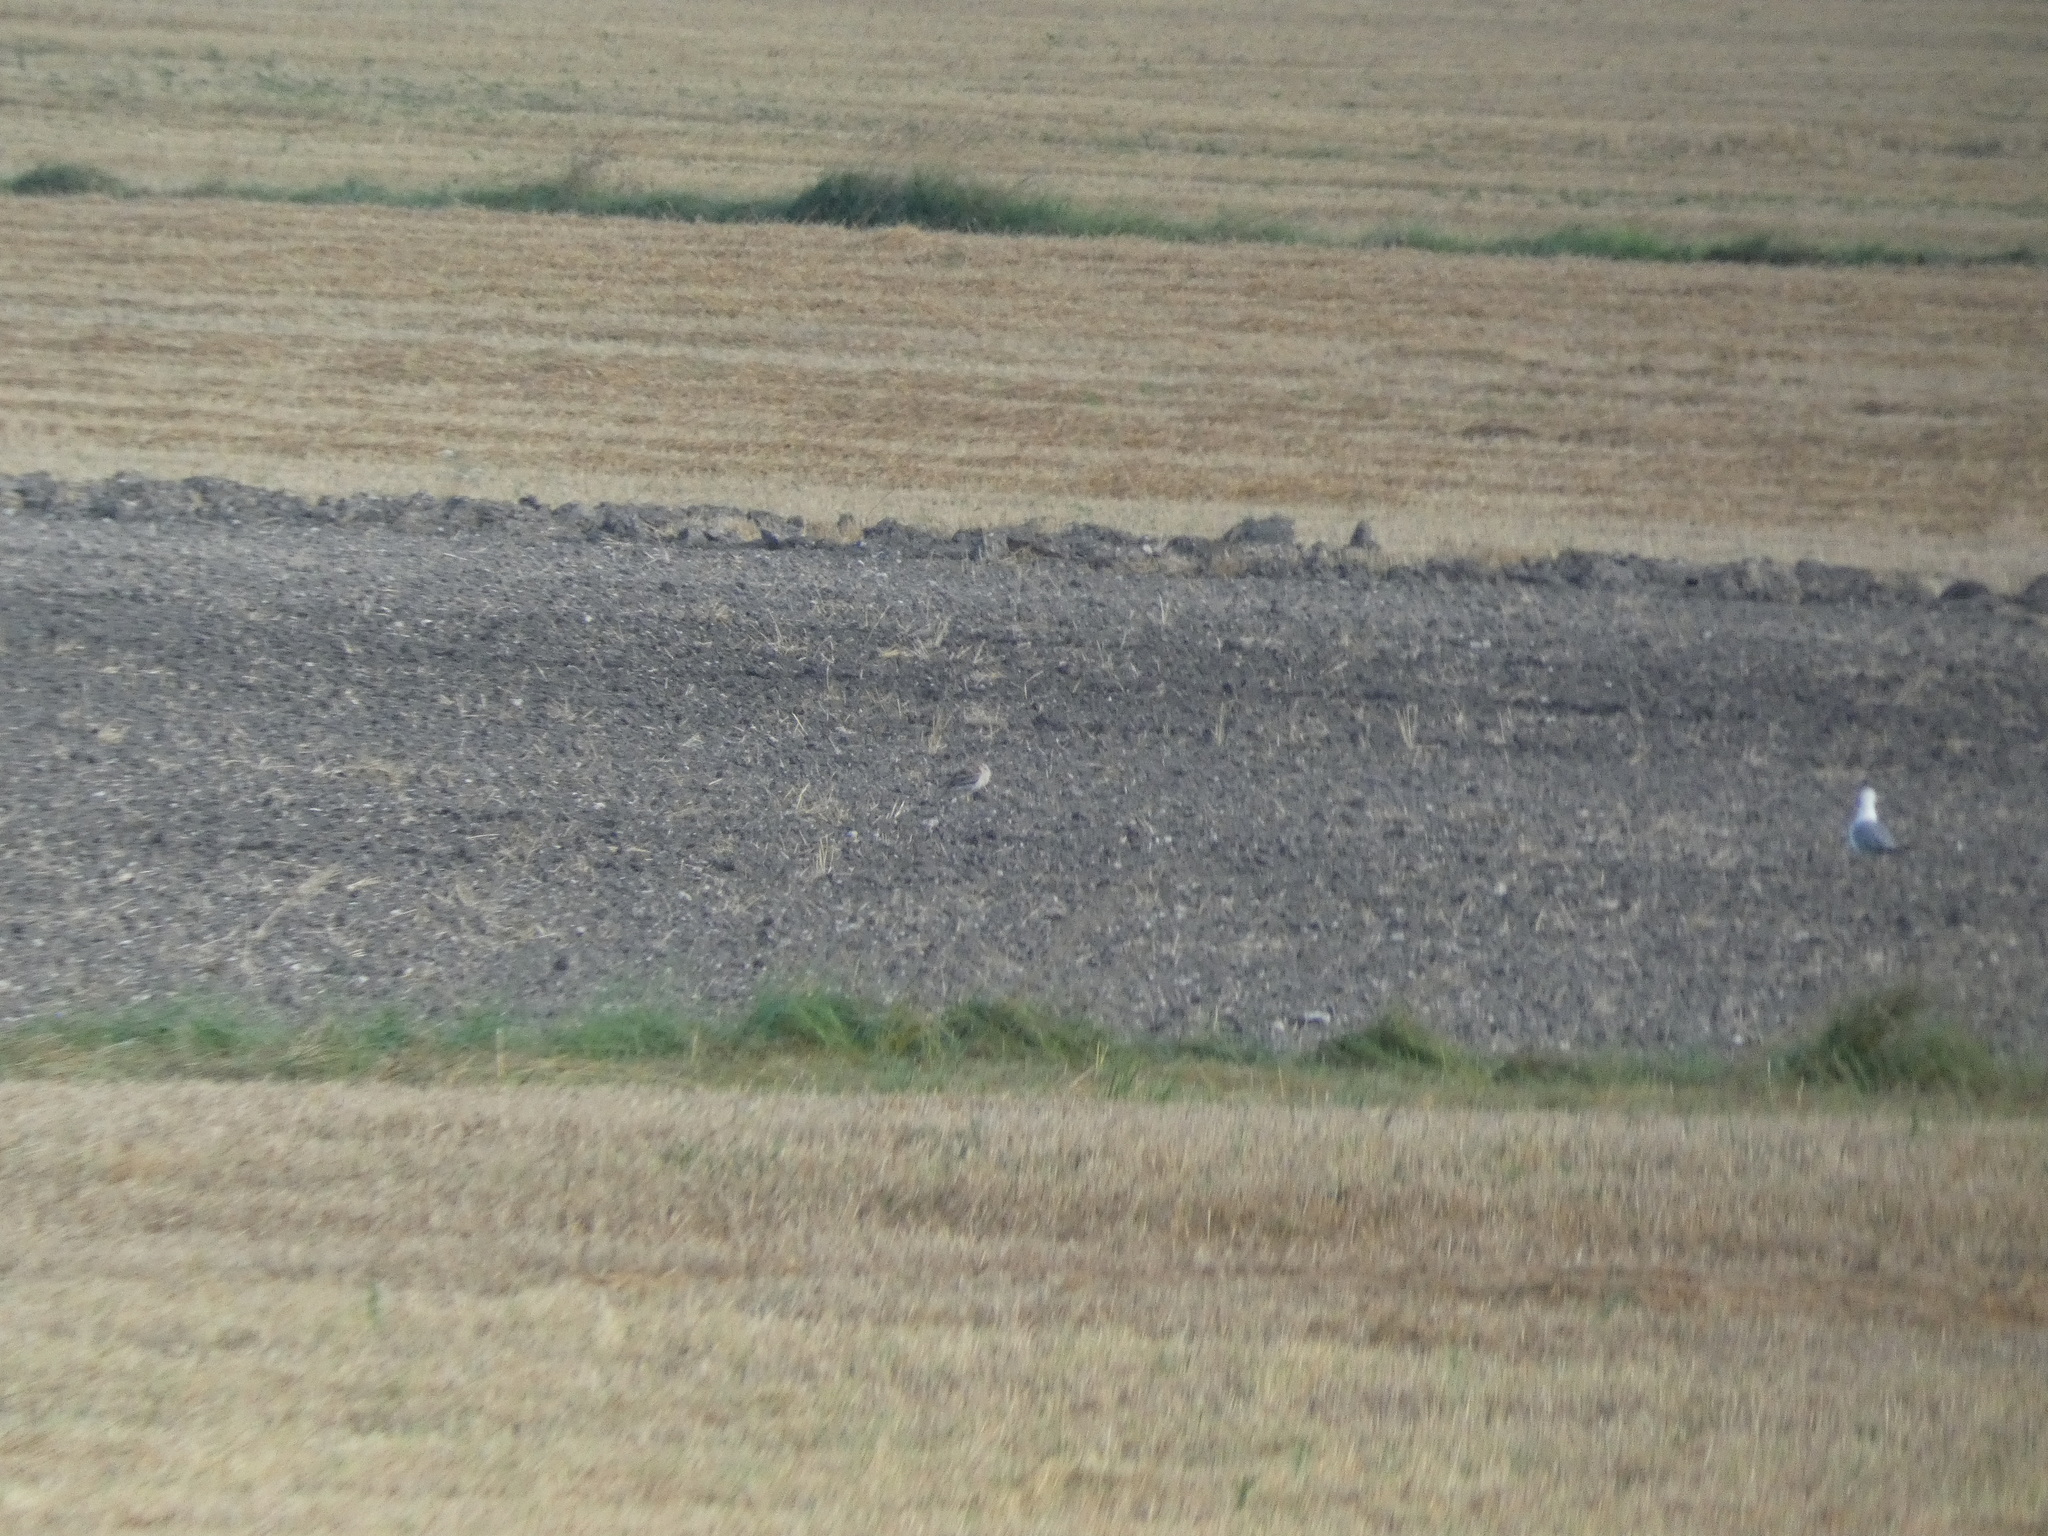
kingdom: Animalia
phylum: Chordata
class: Aves
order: Charadriiformes
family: Burhinidae
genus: Burhinus
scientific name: Burhinus oedicnemus
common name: Eurasian stone-curlew
